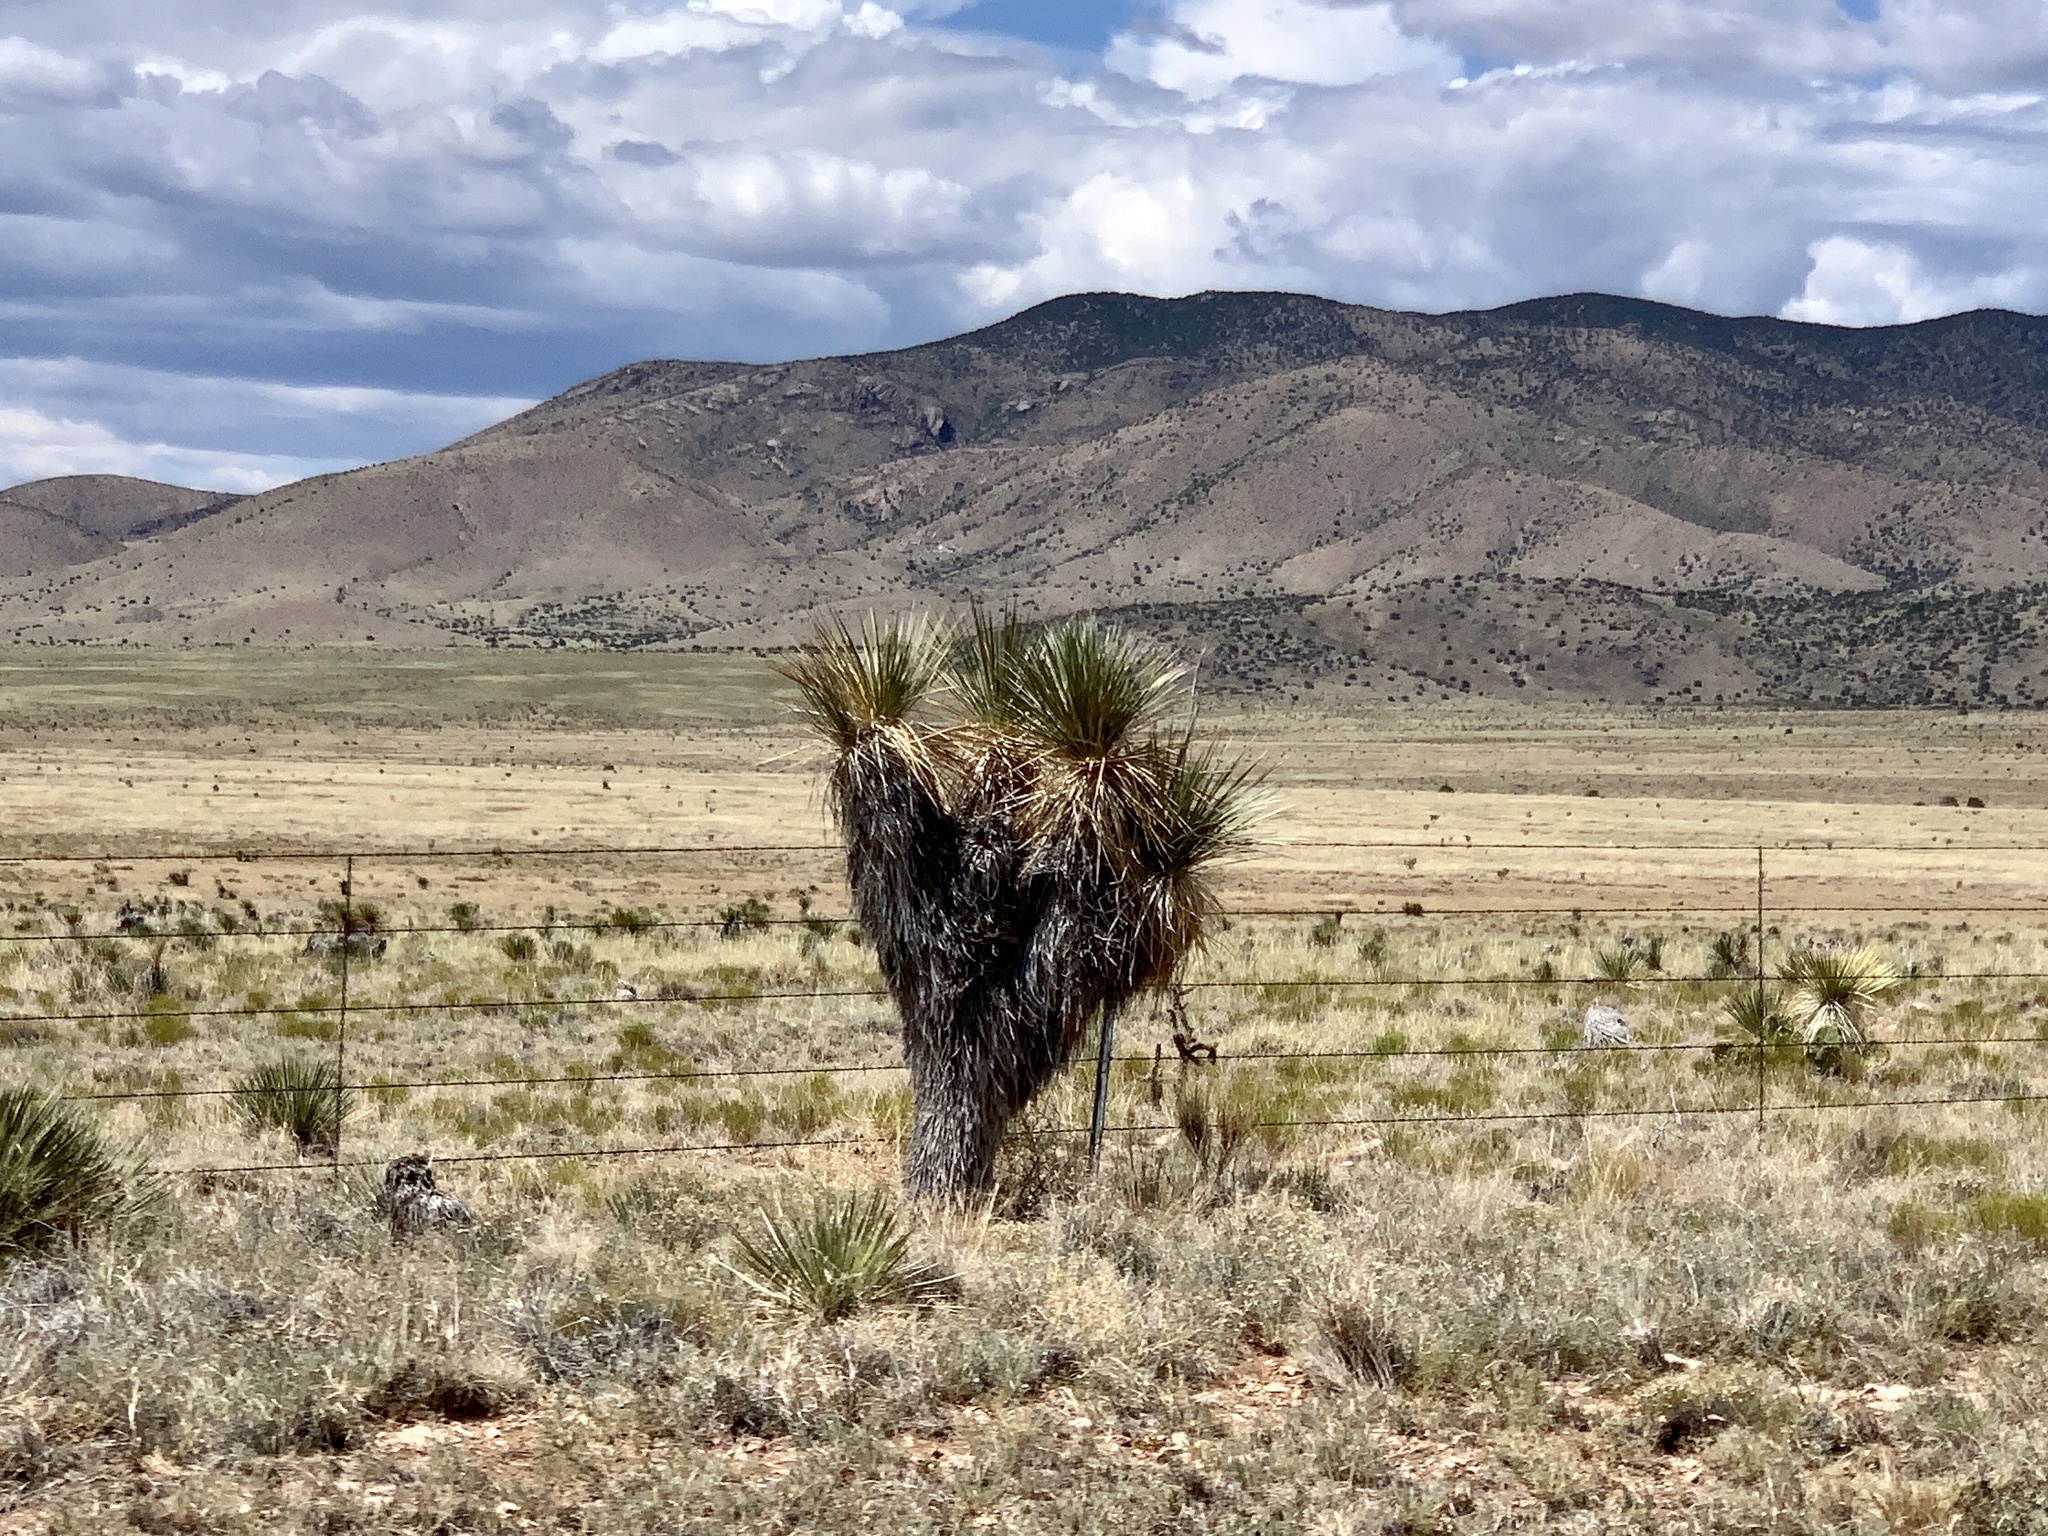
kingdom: Plantae
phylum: Tracheophyta
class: Liliopsida
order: Asparagales
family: Asparagaceae
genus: Yucca
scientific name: Yucca elata
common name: Palmella
